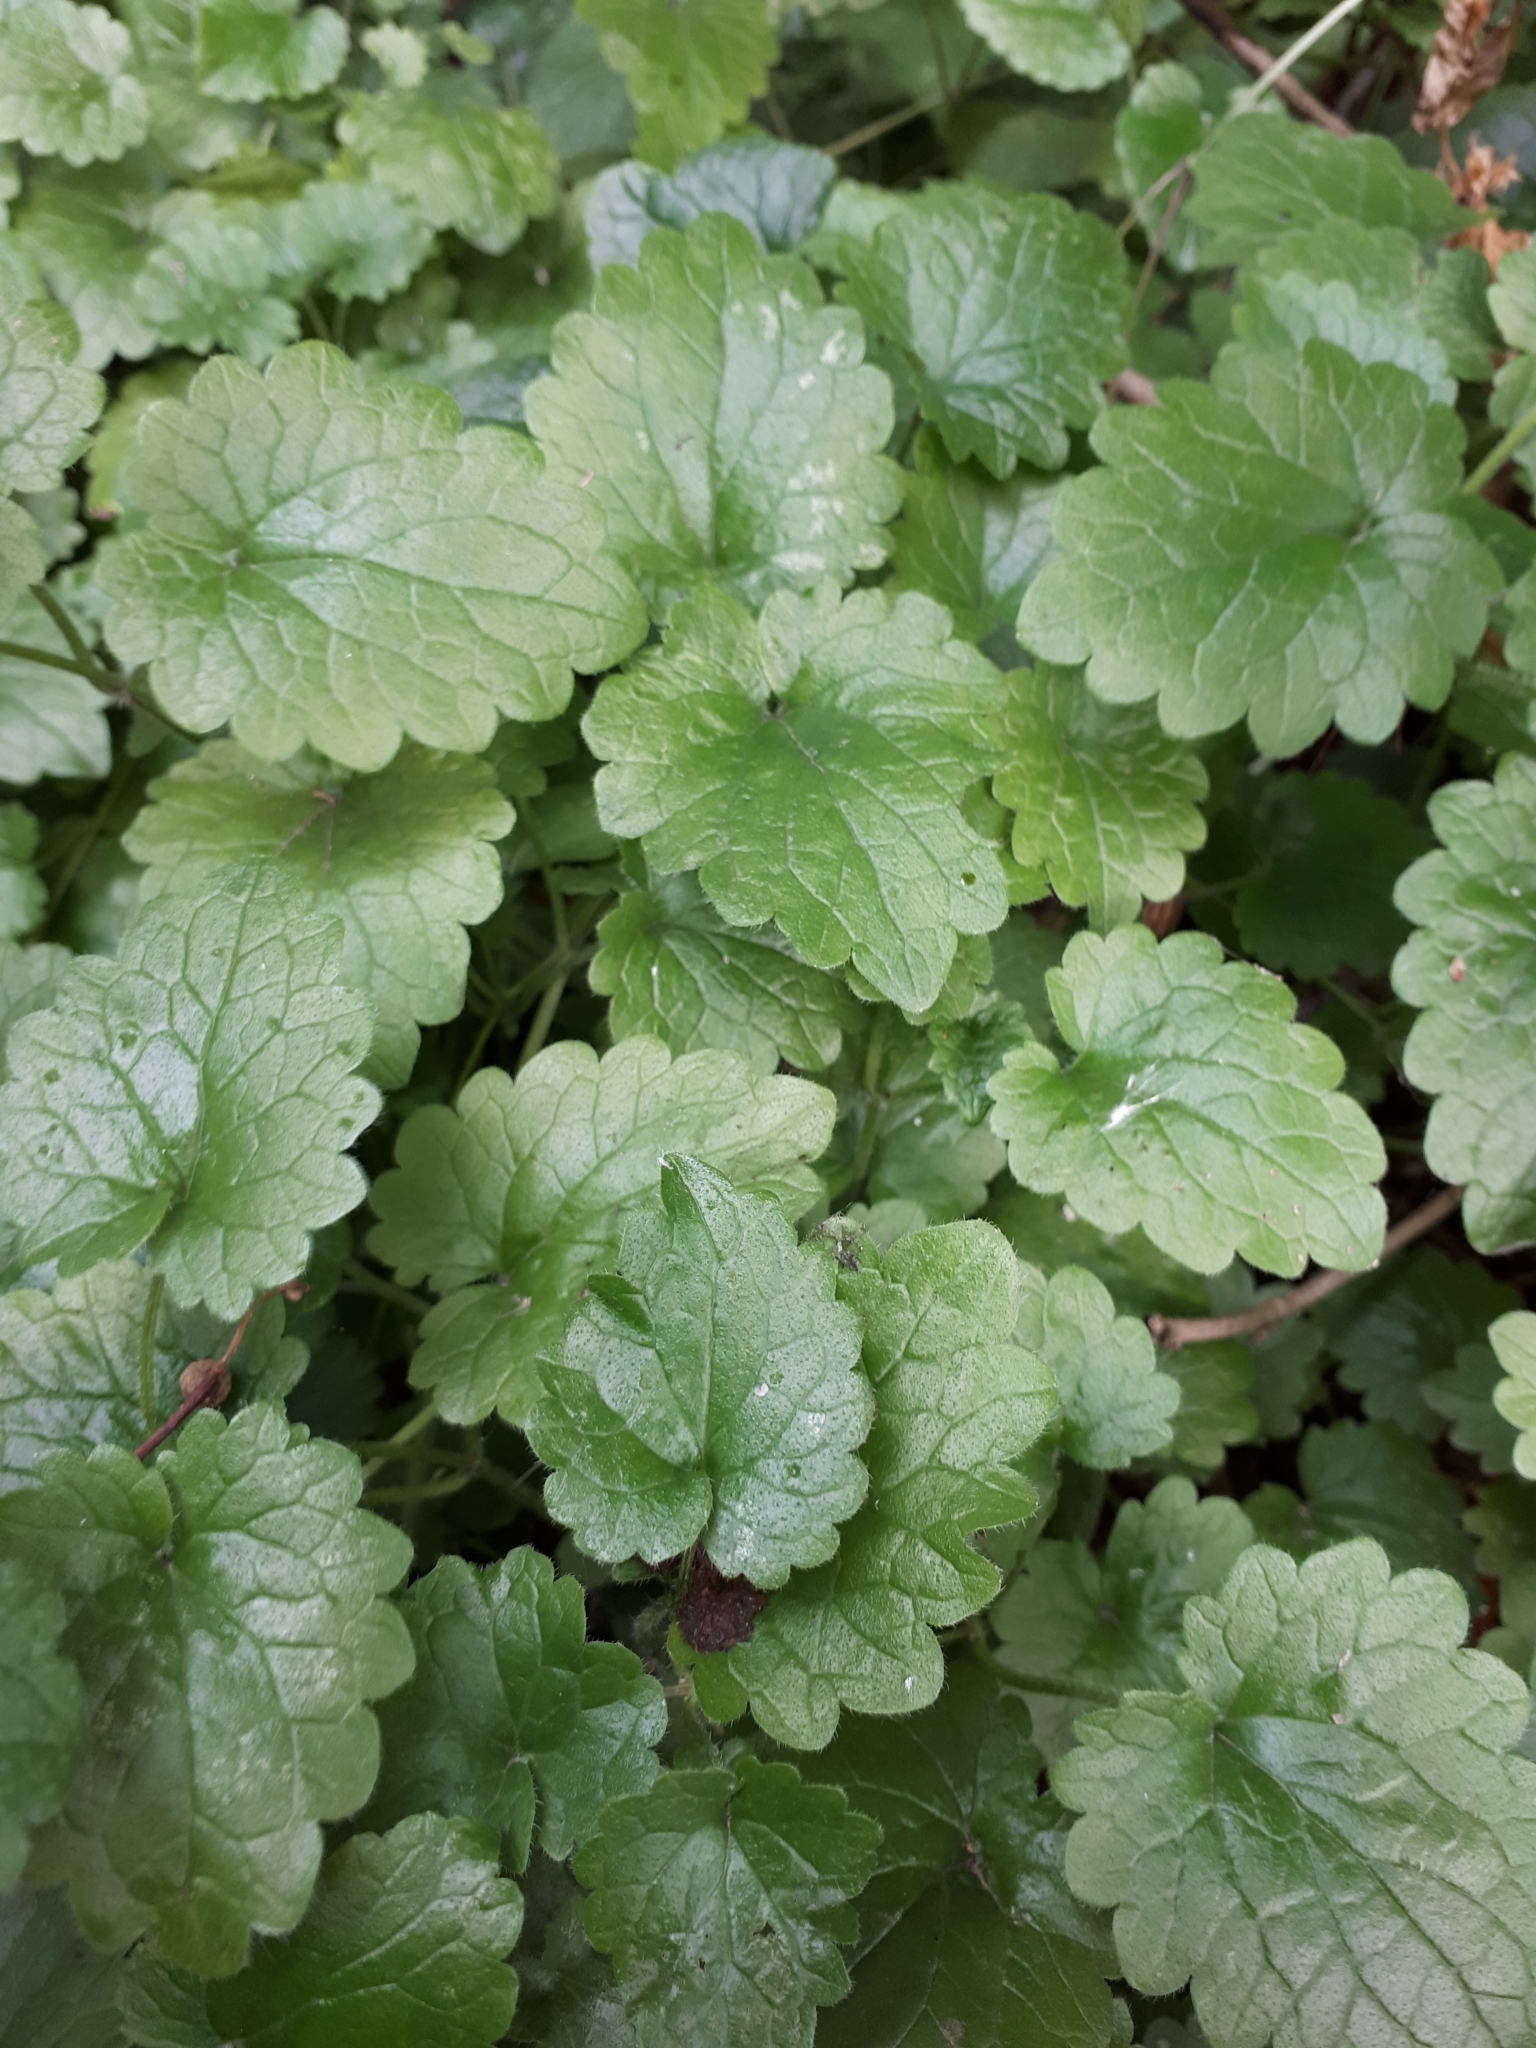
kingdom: Plantae
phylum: Tracheophyta
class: Magnoliopsida
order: Lamiales
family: Lamiaceae
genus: Glechoma
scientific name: Glechoma hederacea
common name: Ground ivy
